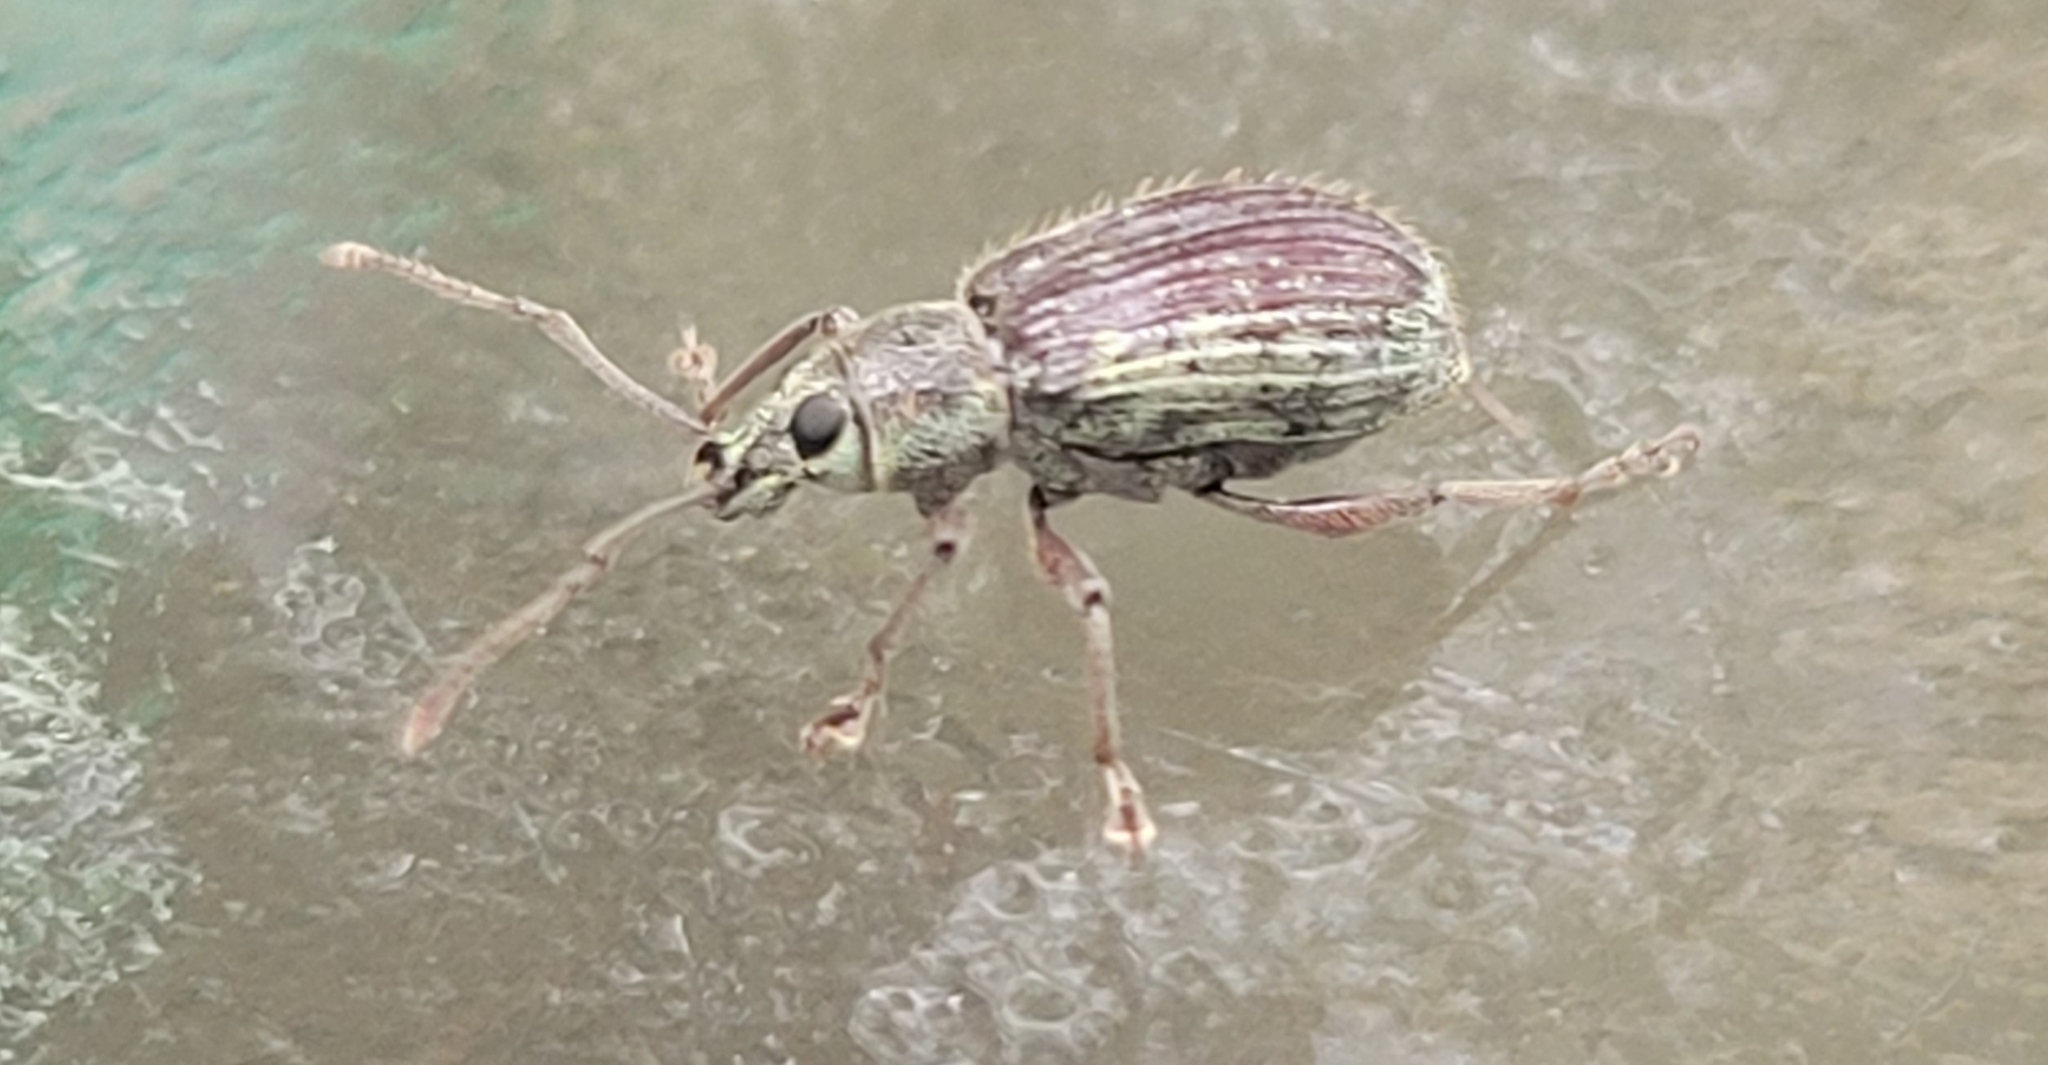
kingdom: Animalia
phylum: Arthropoda
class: Insecta
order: Coleoptera
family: Curculionidae
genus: Cyrtepistomus
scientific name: Cyrtepistomus castaneus
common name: Weevil
